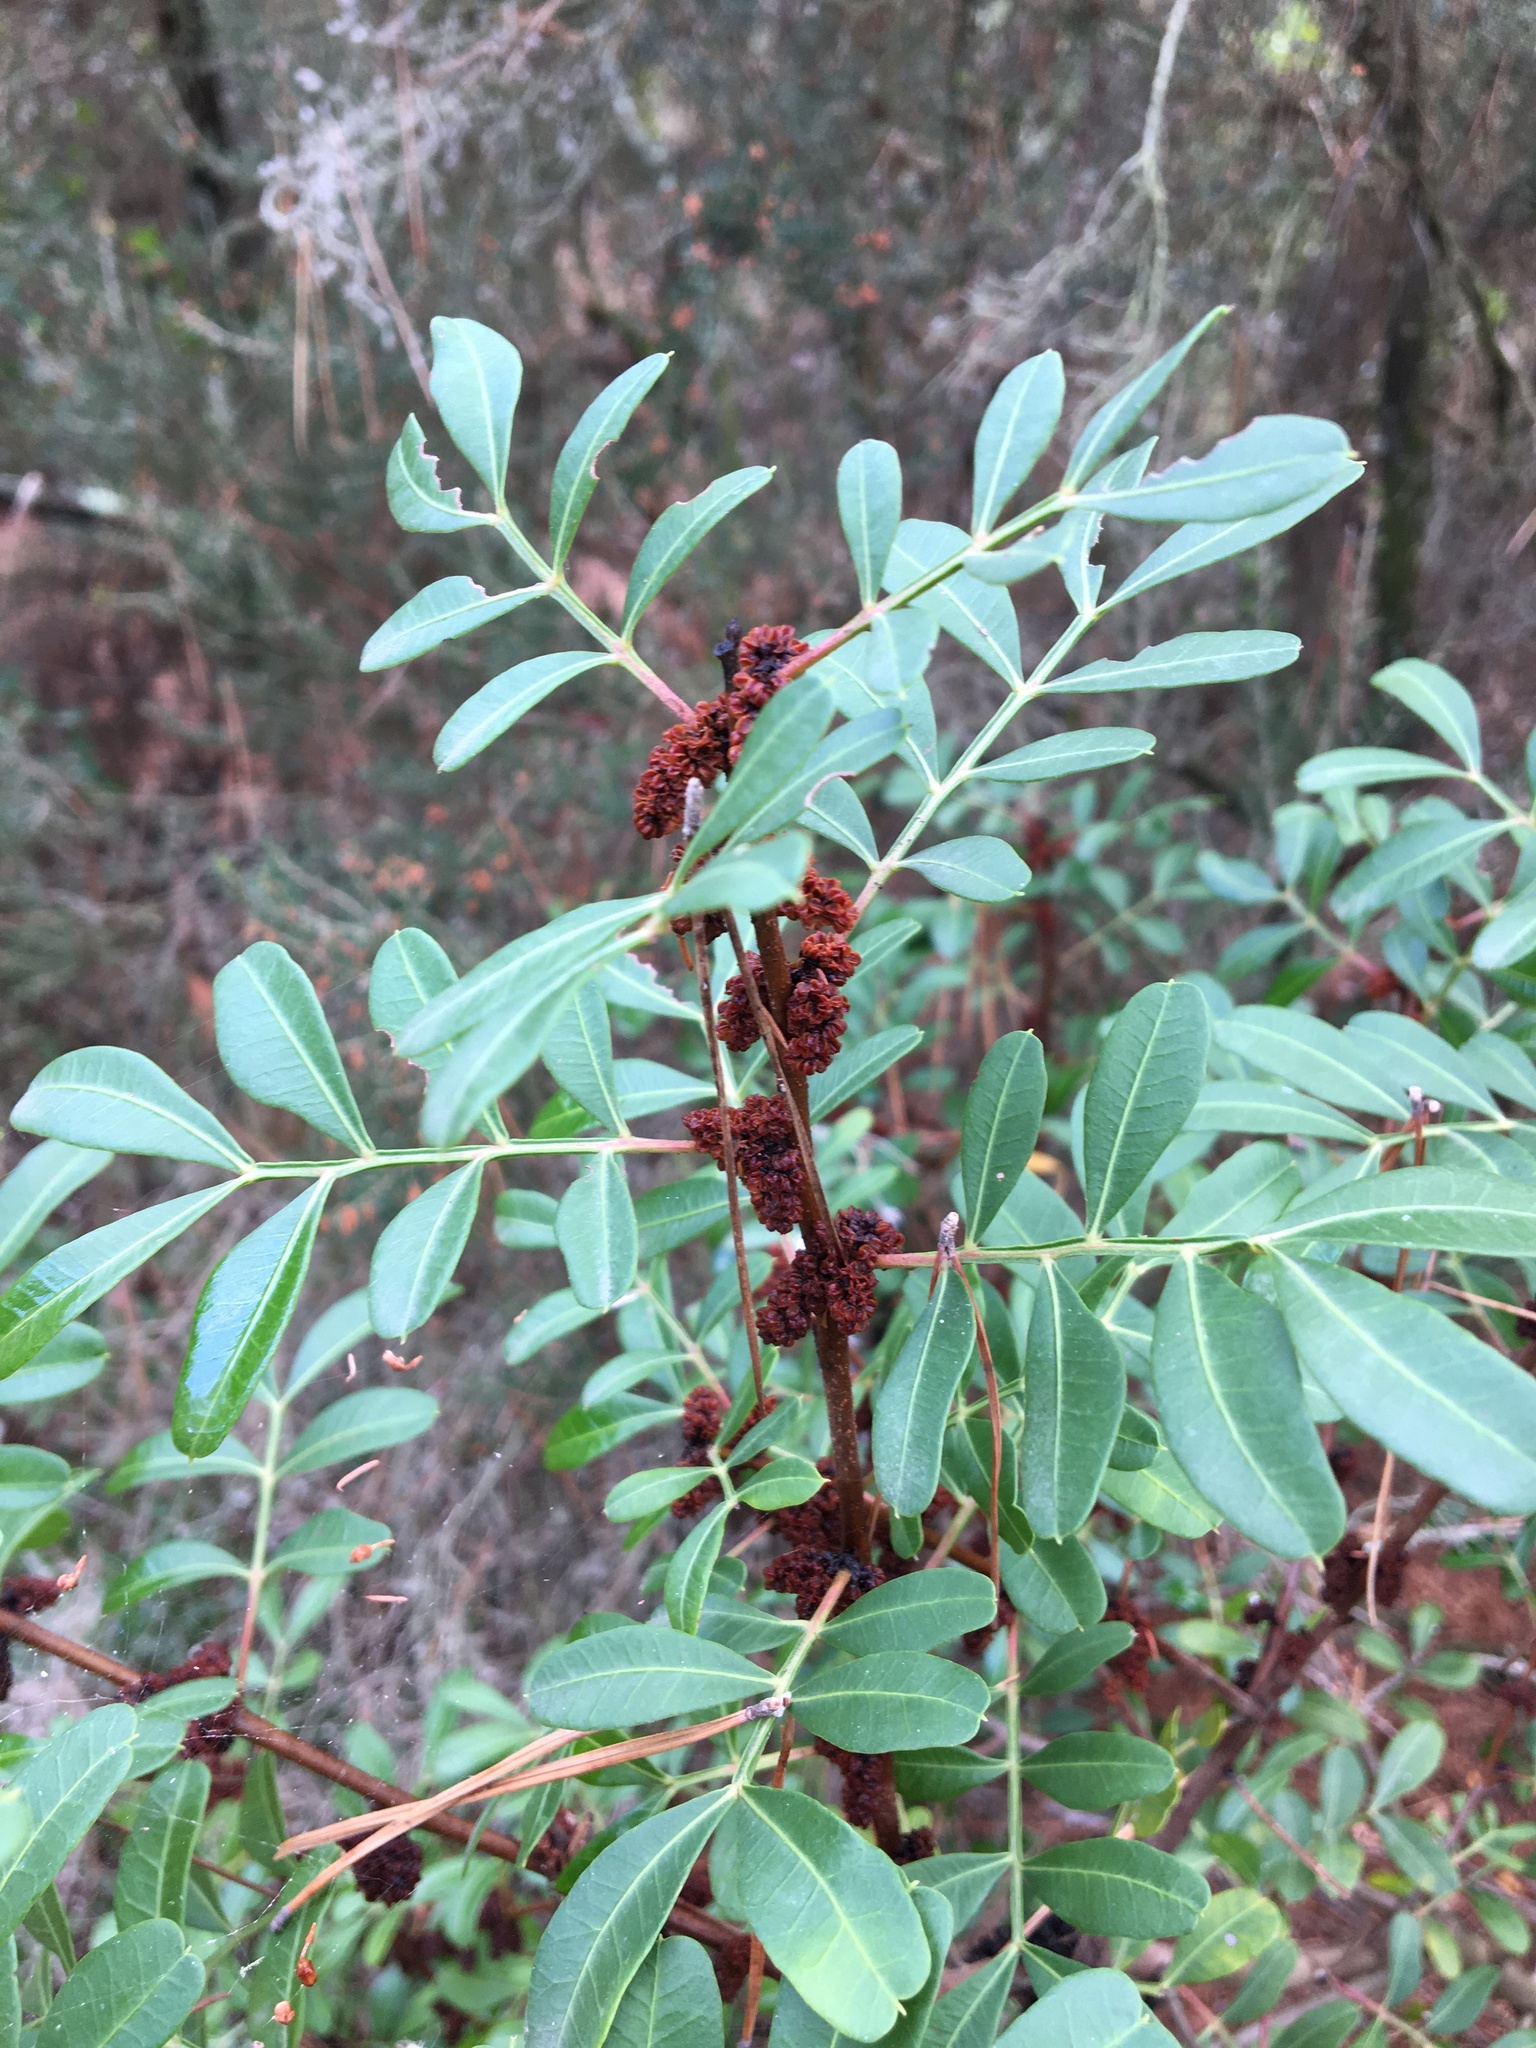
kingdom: Plantae
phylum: Tracheophyta
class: Magnoliopsida
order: Sapindales
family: Anacardiaceae
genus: Pistacia
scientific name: Pistacia lentiscus
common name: Lentisk
